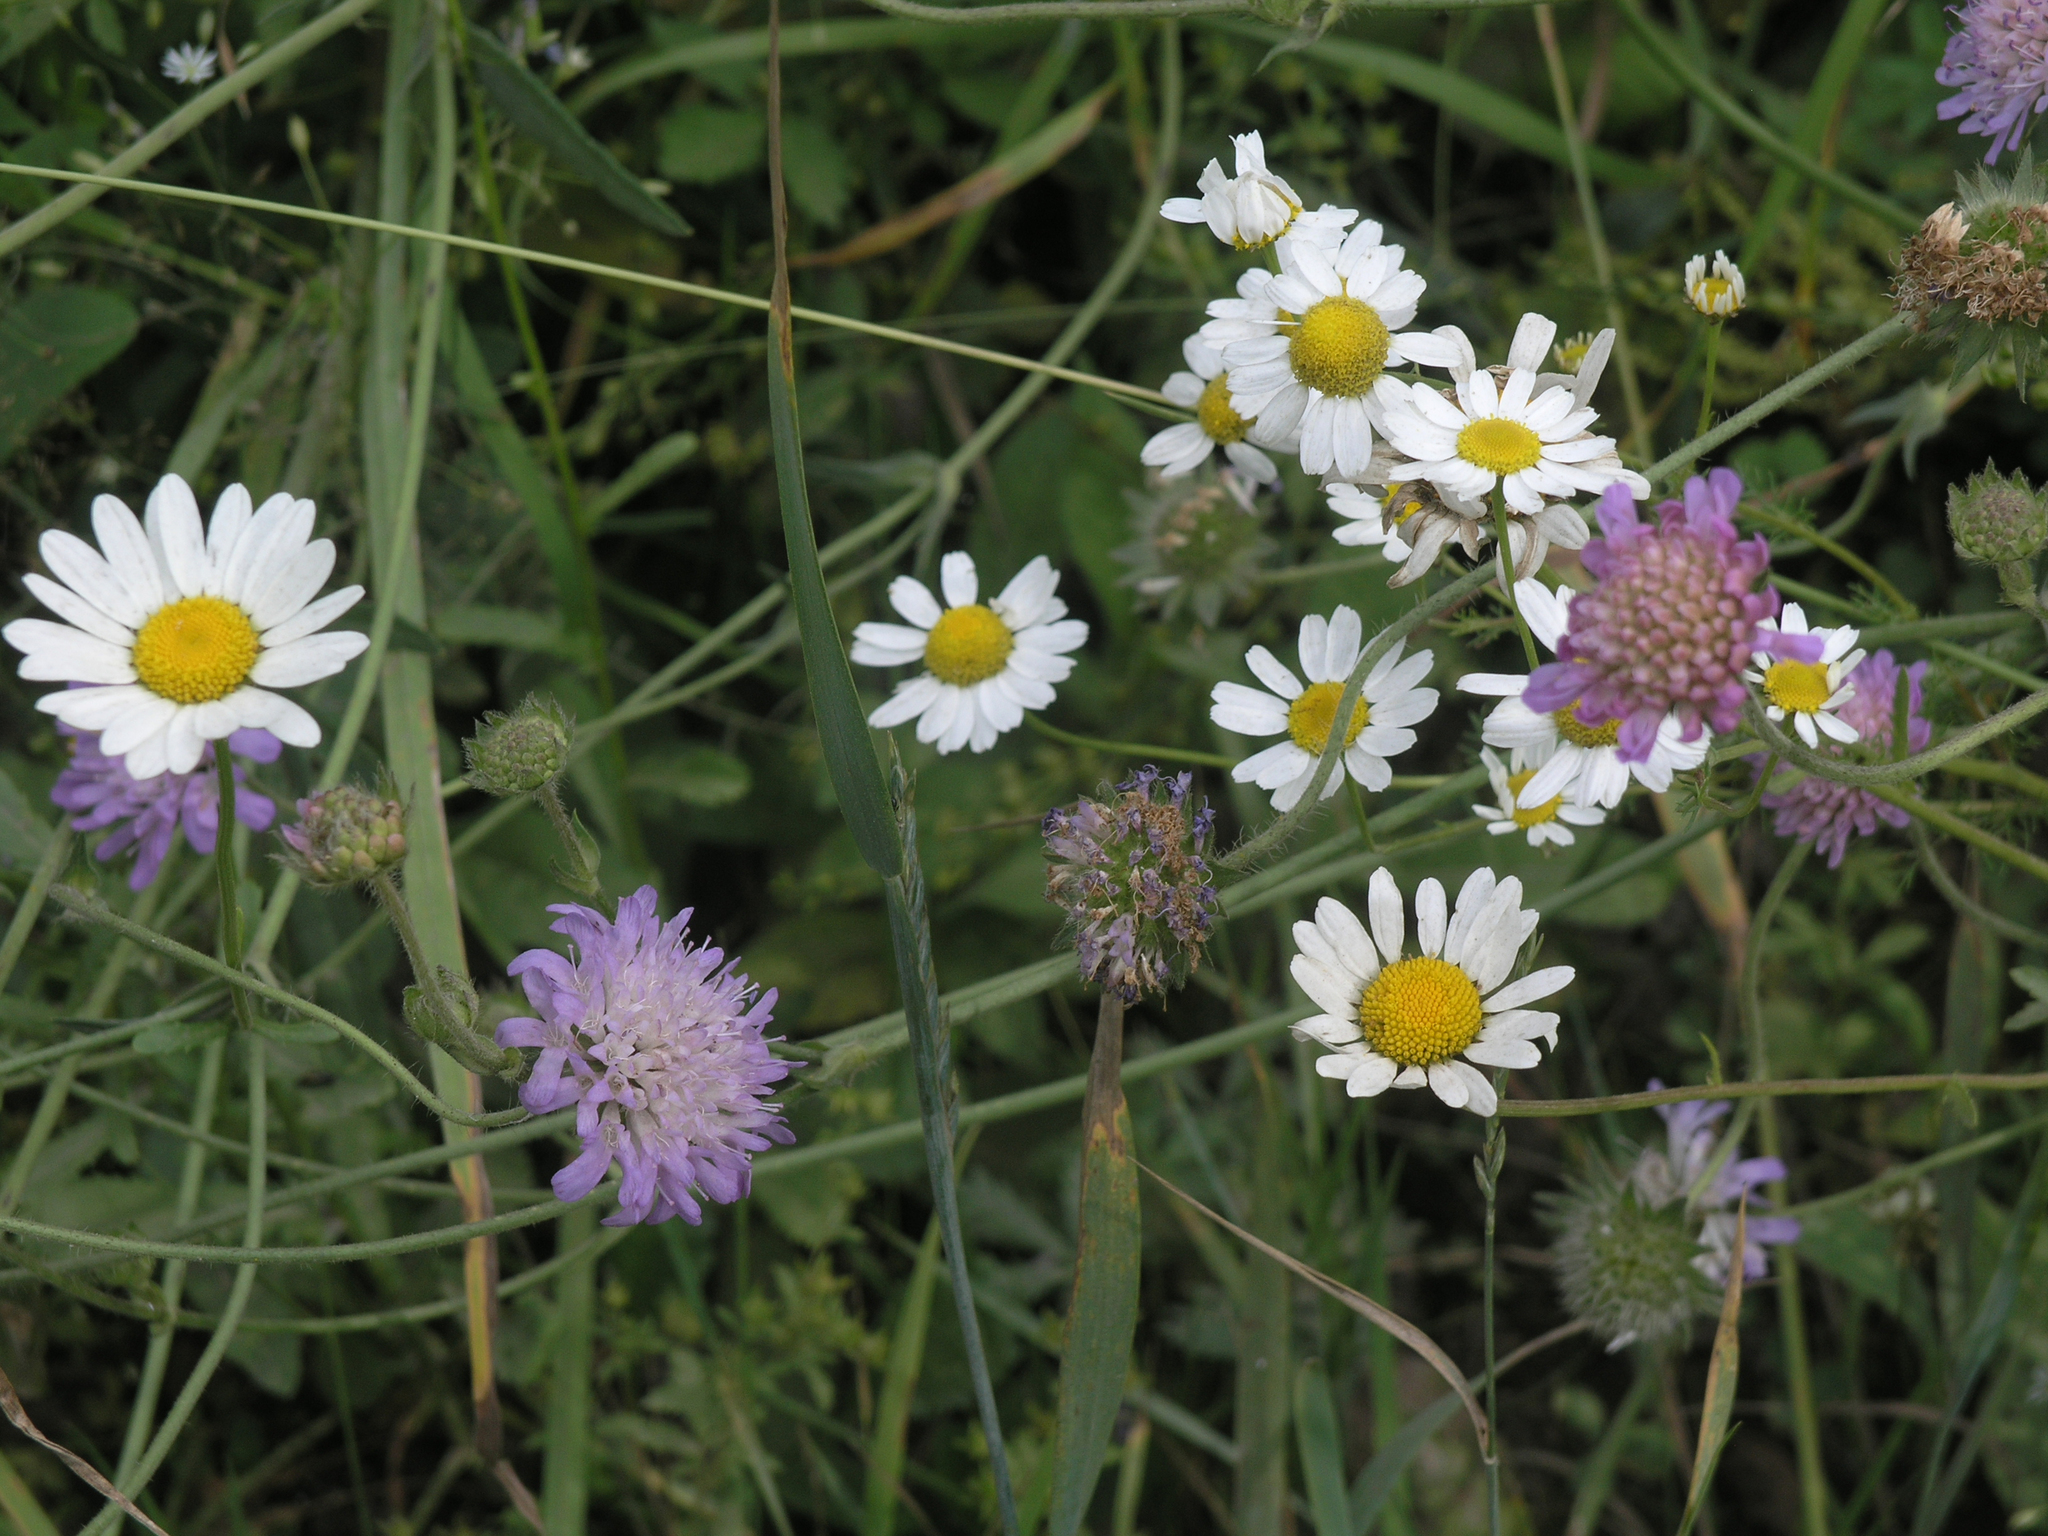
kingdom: Plantae
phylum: Tracheophyta
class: Magnoliopsida
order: Dipsacales
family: Caprifoliaceae
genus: Knautia
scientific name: Knautia arvensis
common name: Field scabiosa
